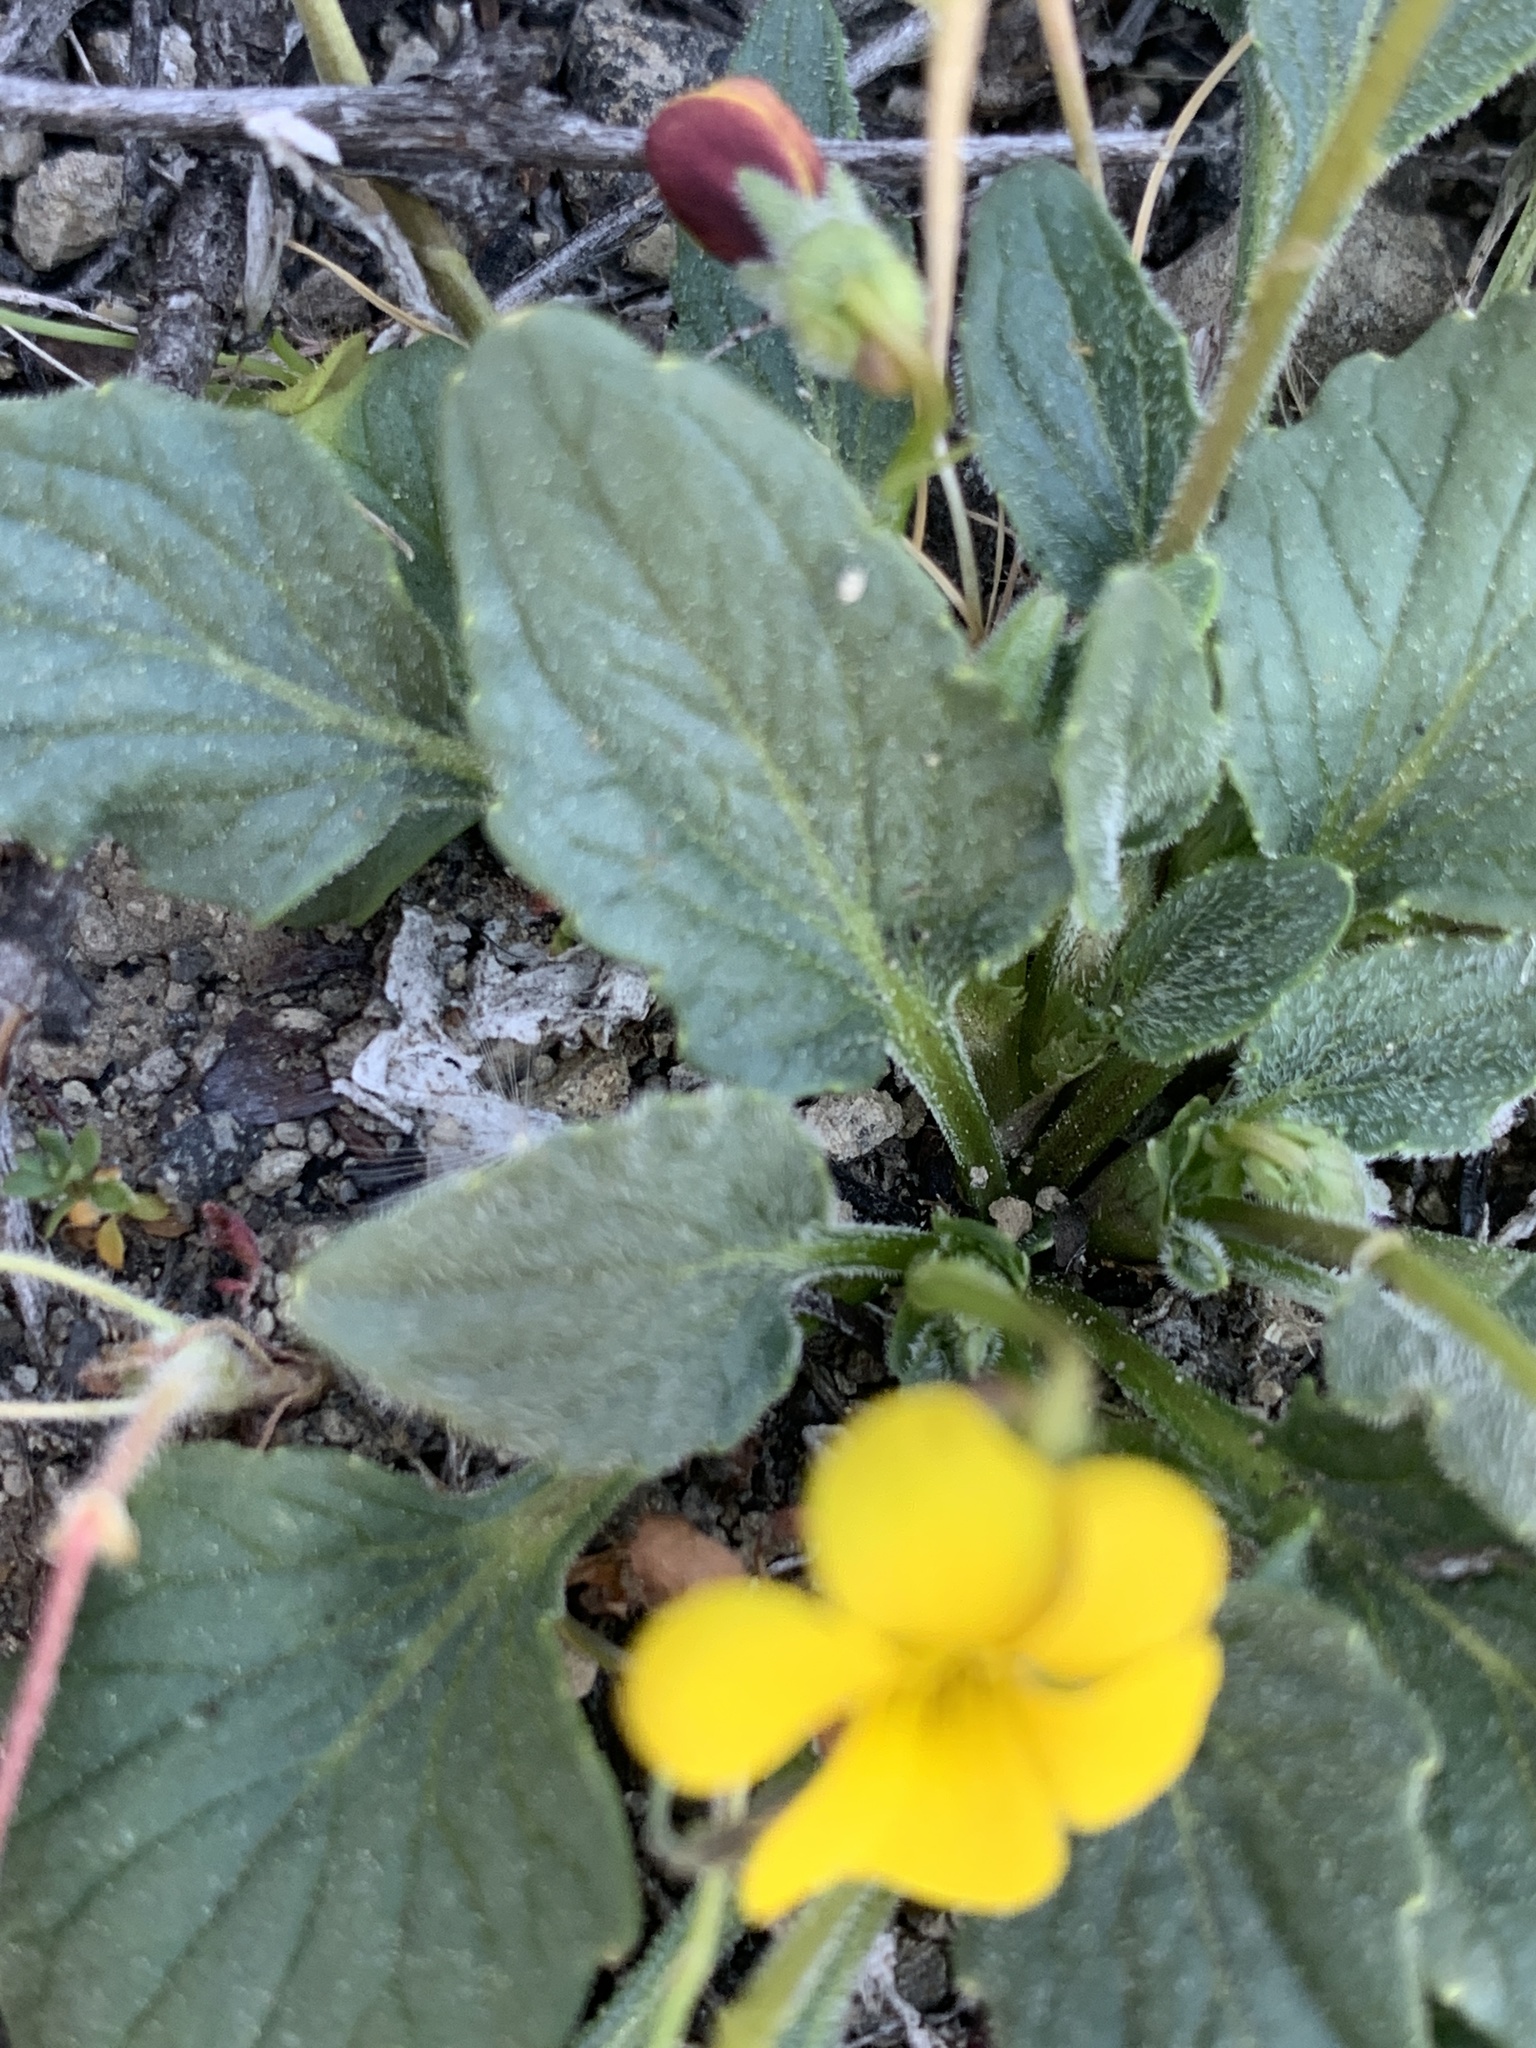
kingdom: Plantae
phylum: Tracheophyta
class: Magnoliopsida
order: Malpighiales
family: Violaceae
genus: Viola
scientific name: Viola purpurea
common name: Pine violet
